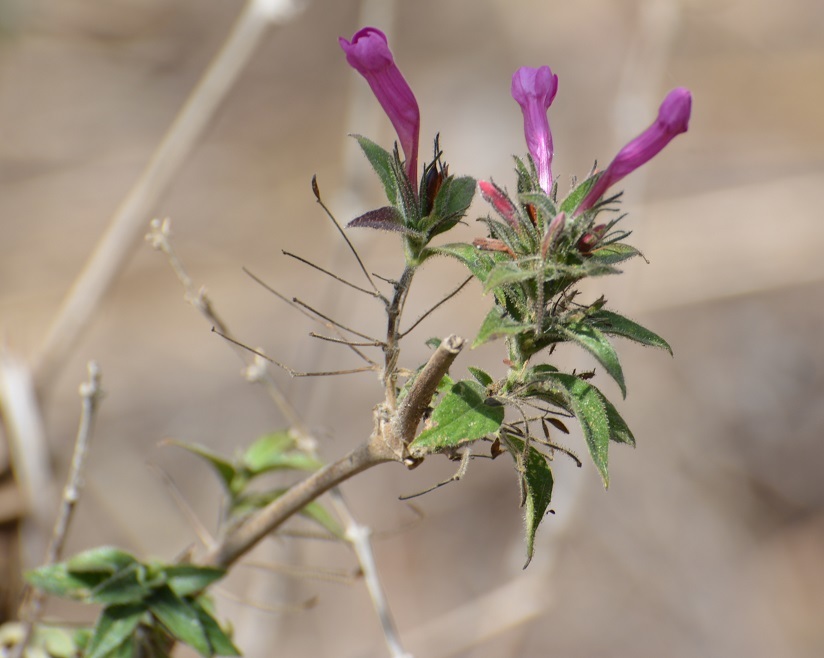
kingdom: Plantae
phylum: Tracheophyta
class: Magnoliopsida
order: Lamiales
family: Acanthaceae
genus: Ruellia
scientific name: Ruellia inundata
